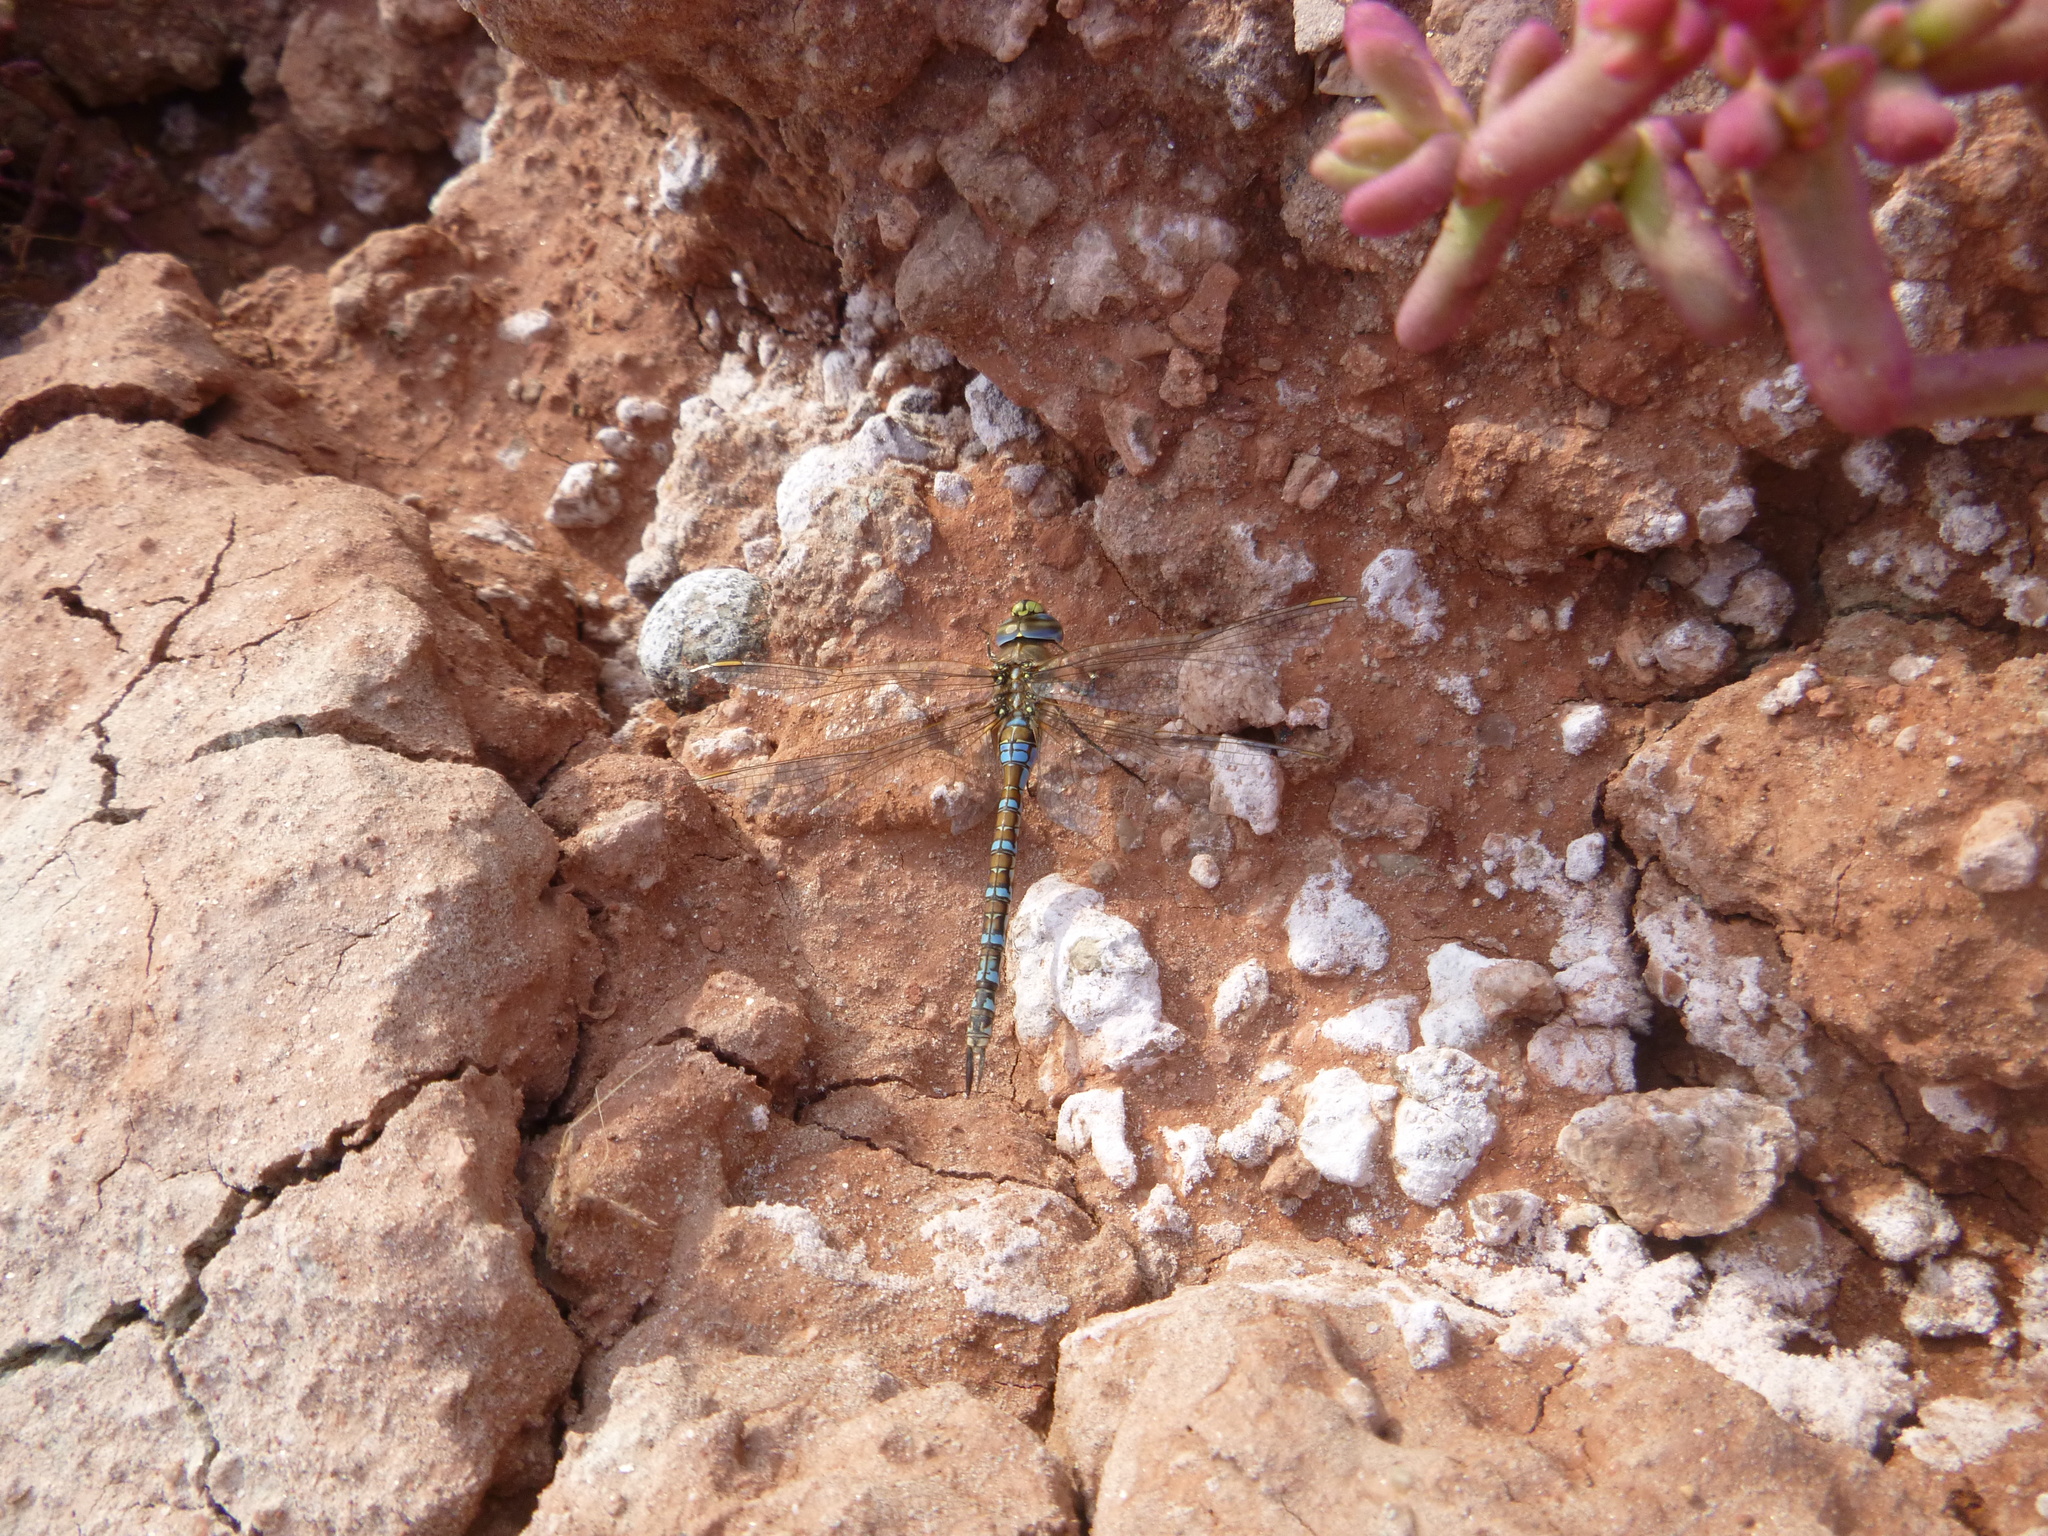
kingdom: Animalia
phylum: Arthropoda
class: Insecta
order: Odonata
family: Aeshnidae
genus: Rhionaeschna
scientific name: Rhionaeschna absoluta
